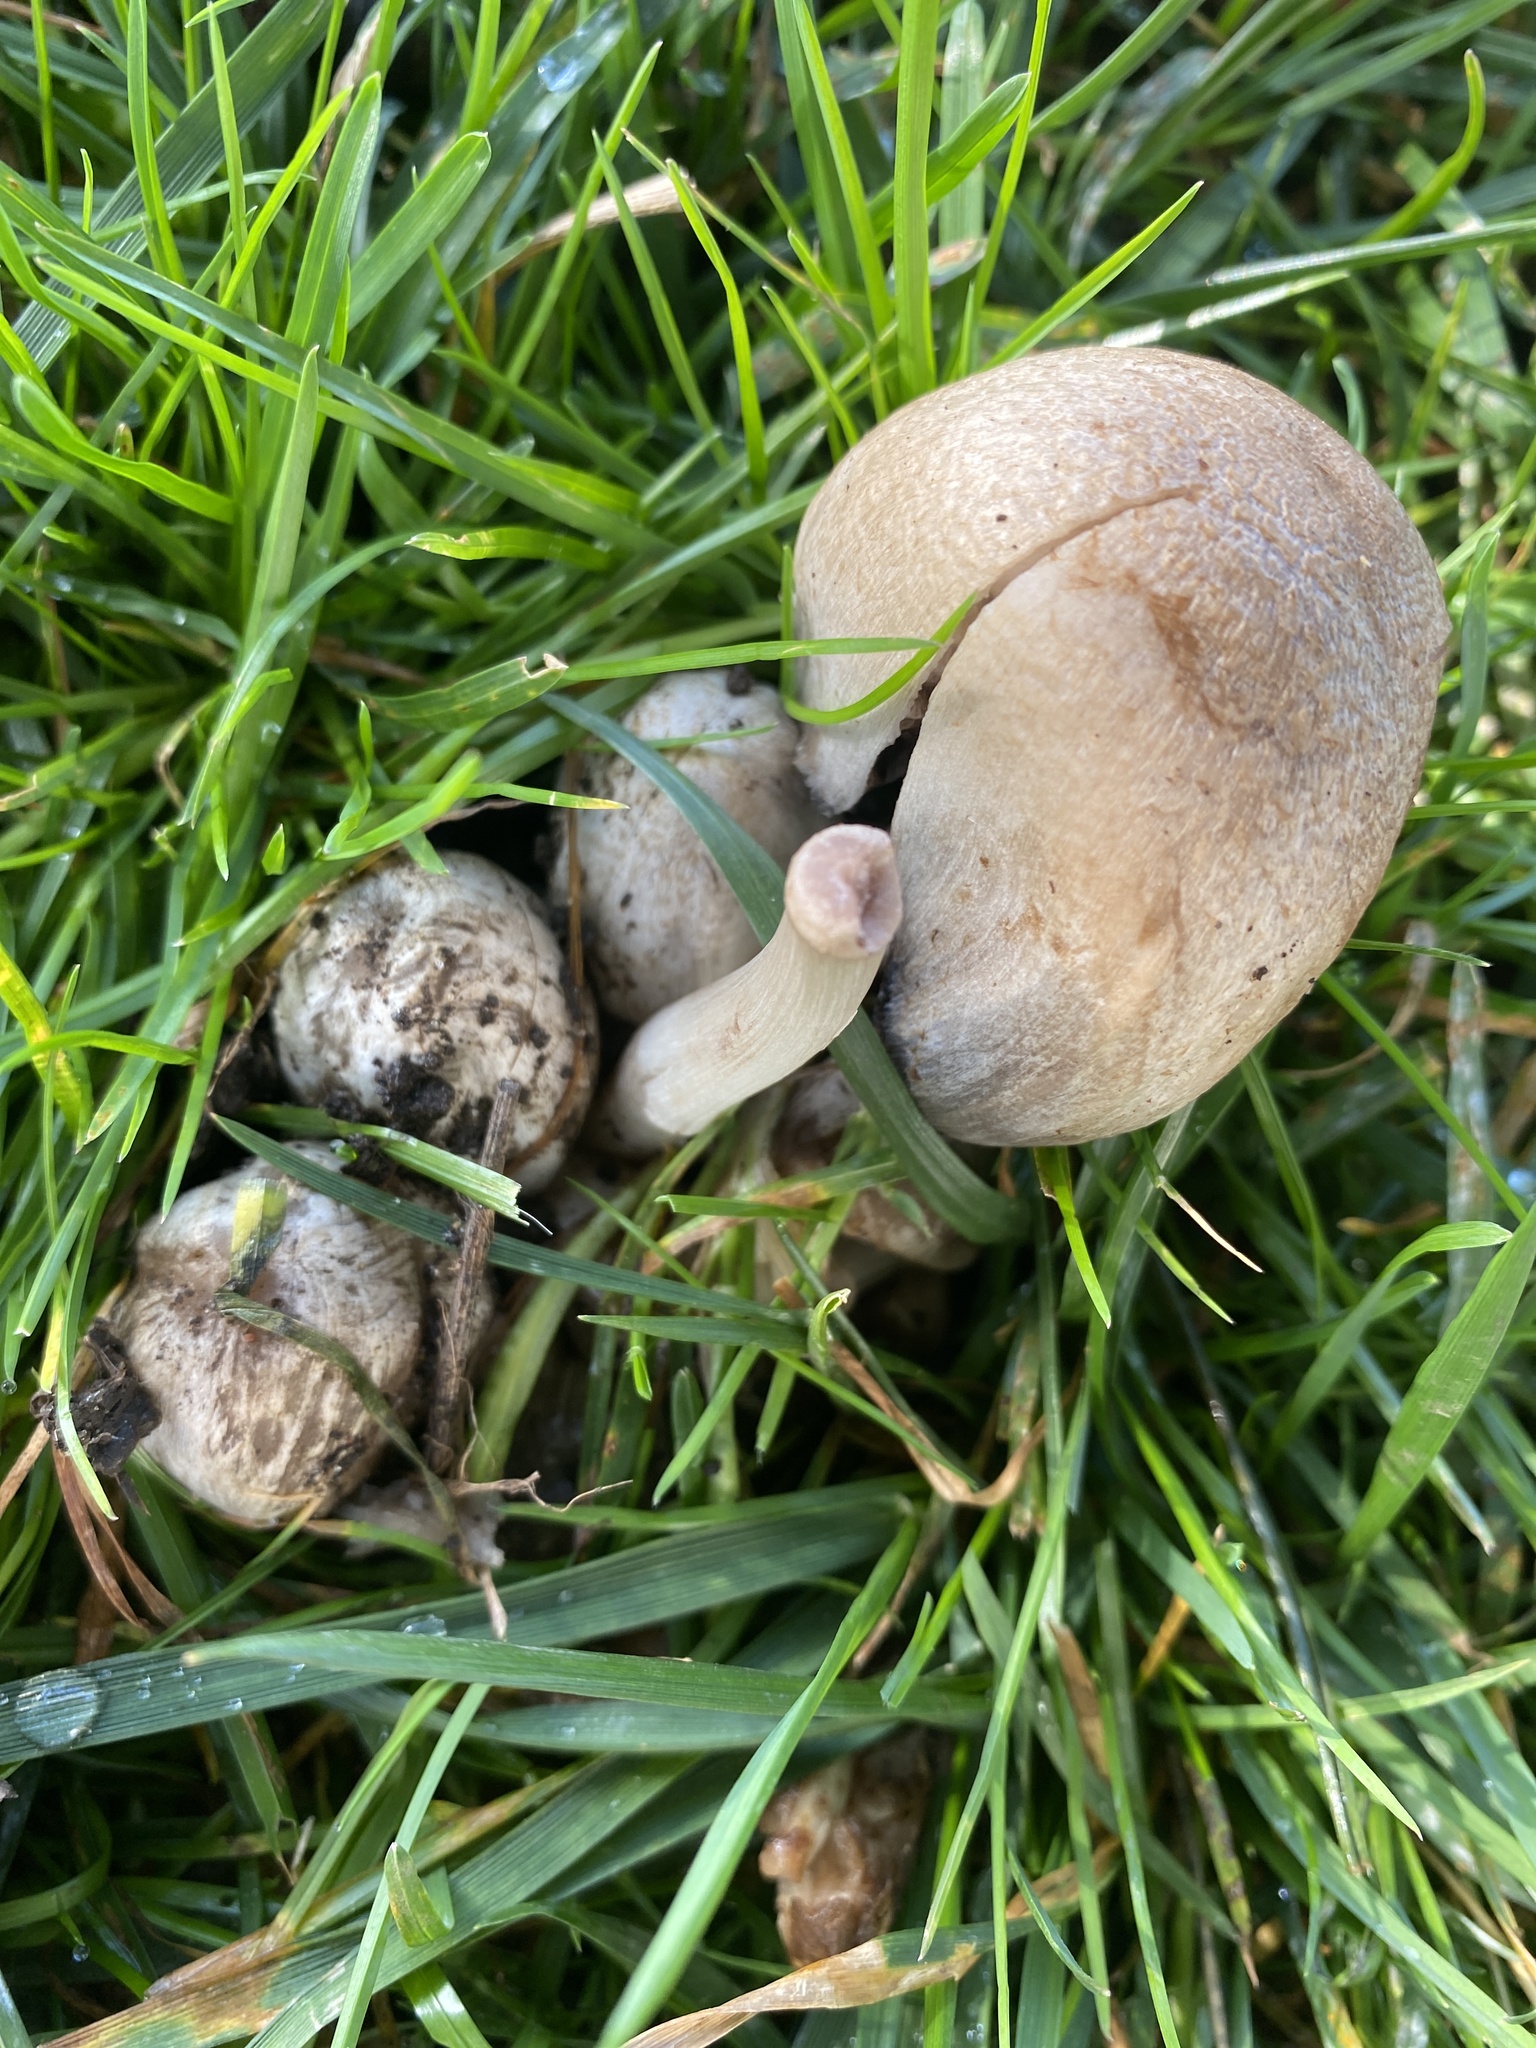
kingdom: Fungi
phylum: Basidiomycota
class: Agaricomycetes
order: Agaricales
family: Psathyrellaceae
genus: Coprinopsis
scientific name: Coprinopsis atramentaria
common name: Common ink-cap
